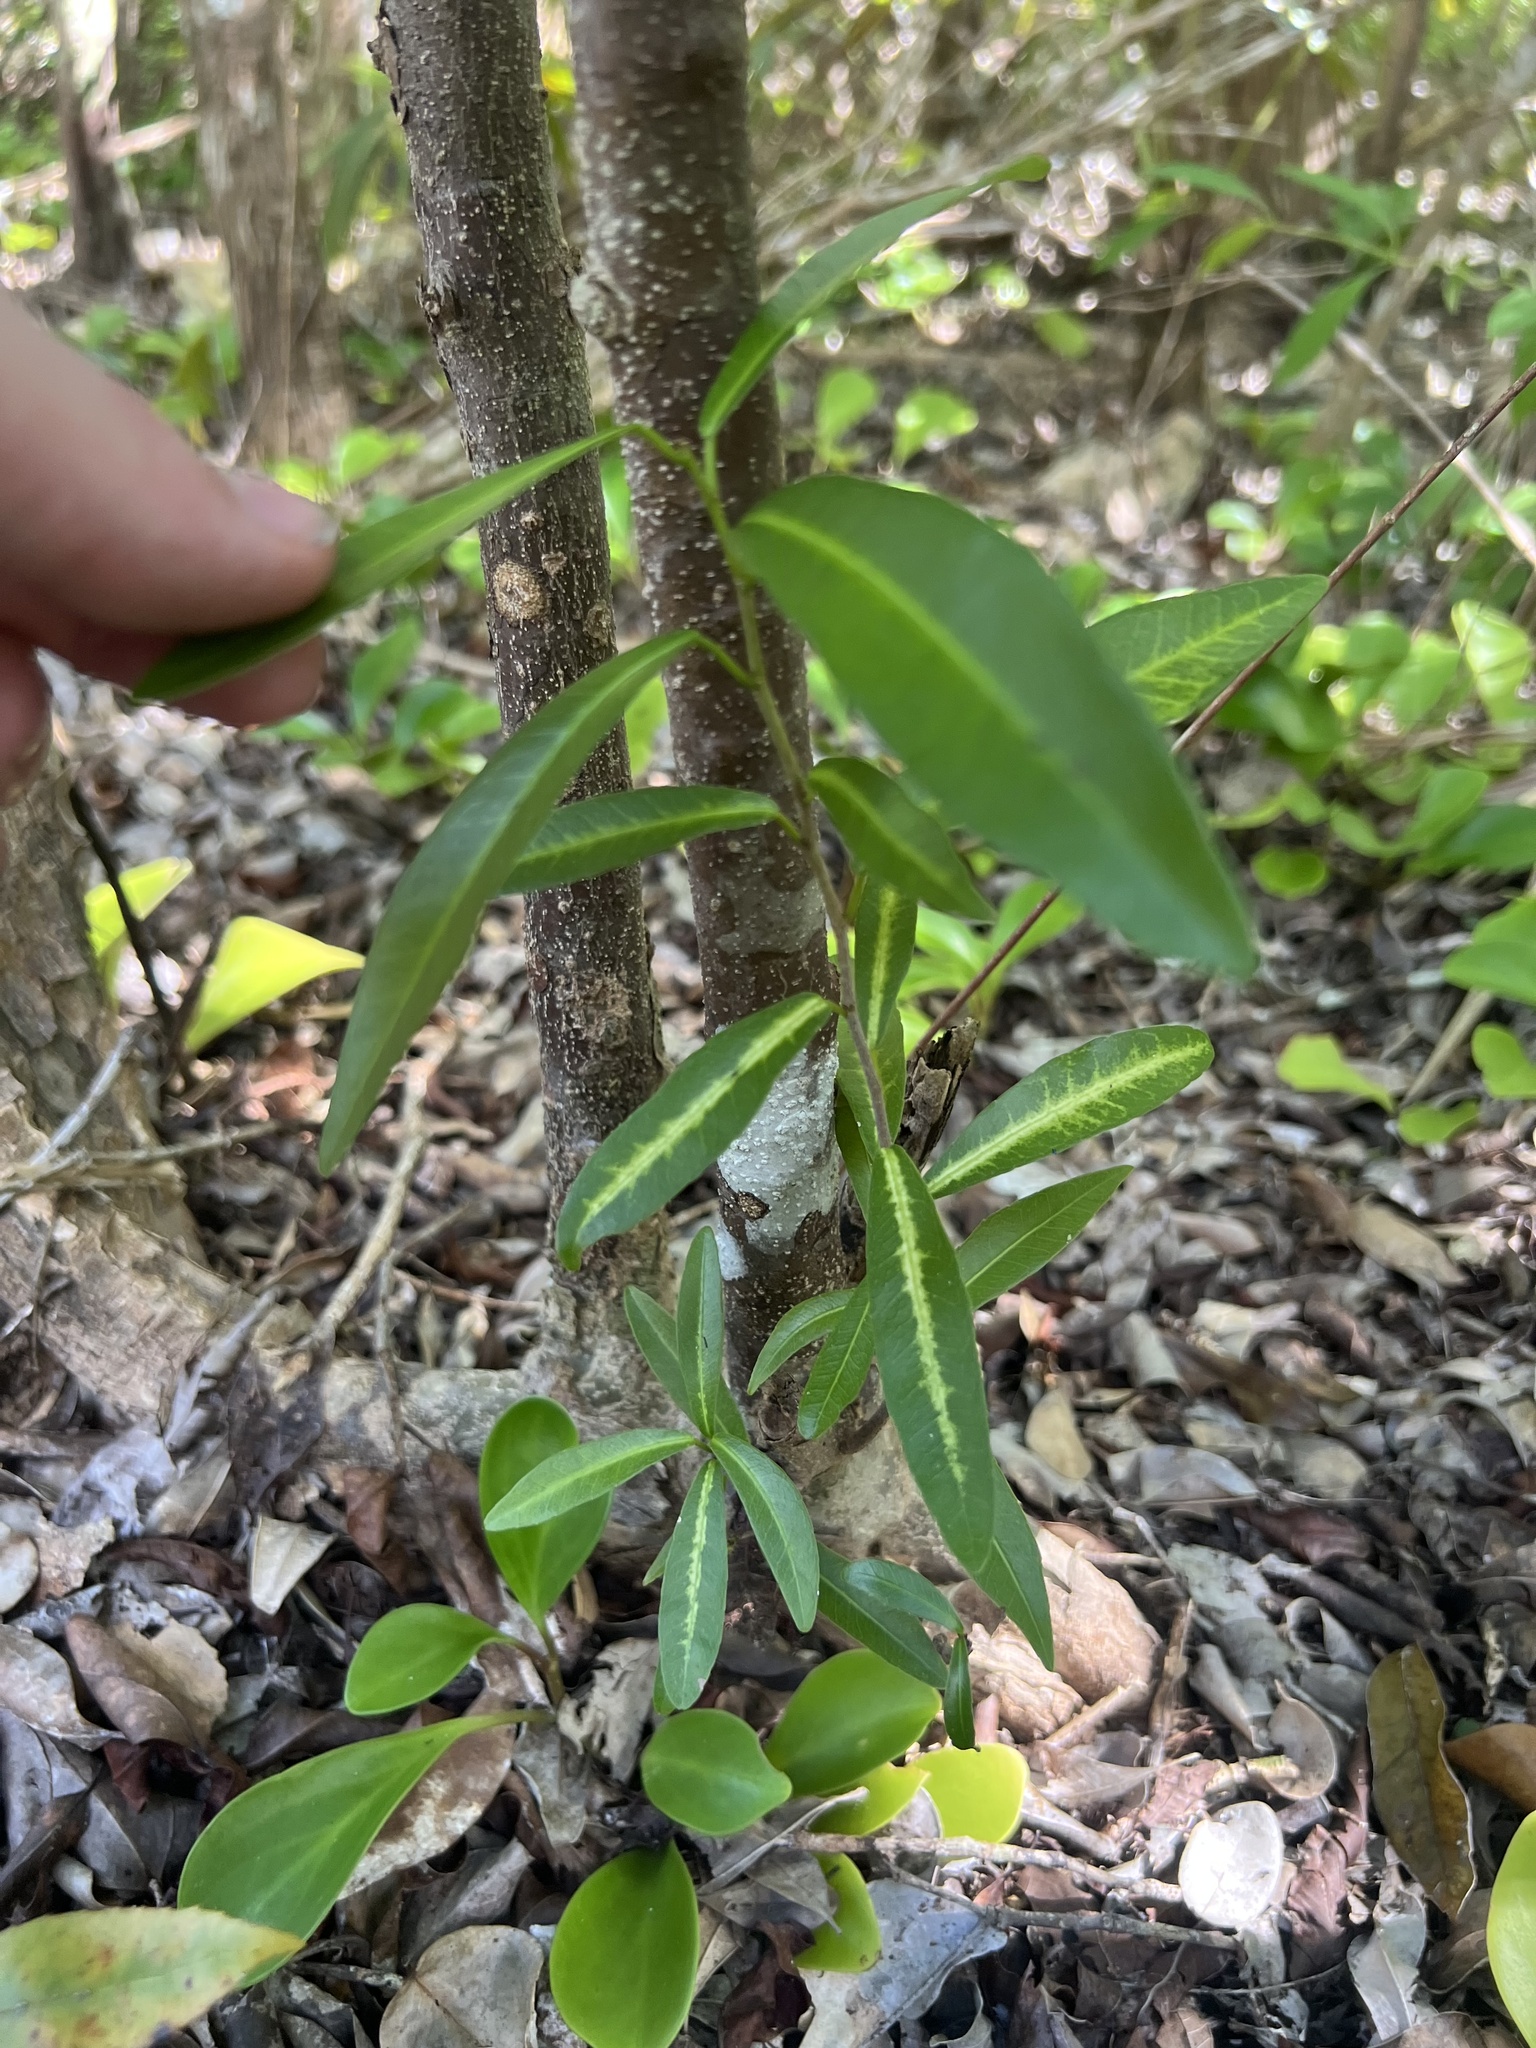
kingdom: Plantae
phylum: Tracheophyta
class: Magnoliopsida
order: Malpighiales
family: Euphorbiaceae
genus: Gymnanthes
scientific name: Gymnanthes lucida
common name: Oysterwood
